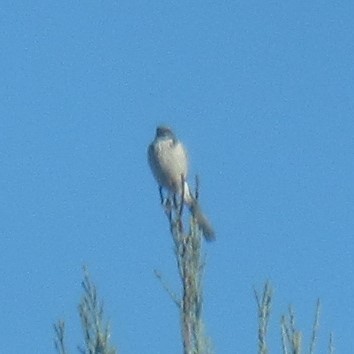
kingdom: Animalia
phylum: Chordata
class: Aves
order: Passeriformes
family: Corvidae
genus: Aphelocoma
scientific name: Aphelocoma californica
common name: California scrub-jay
